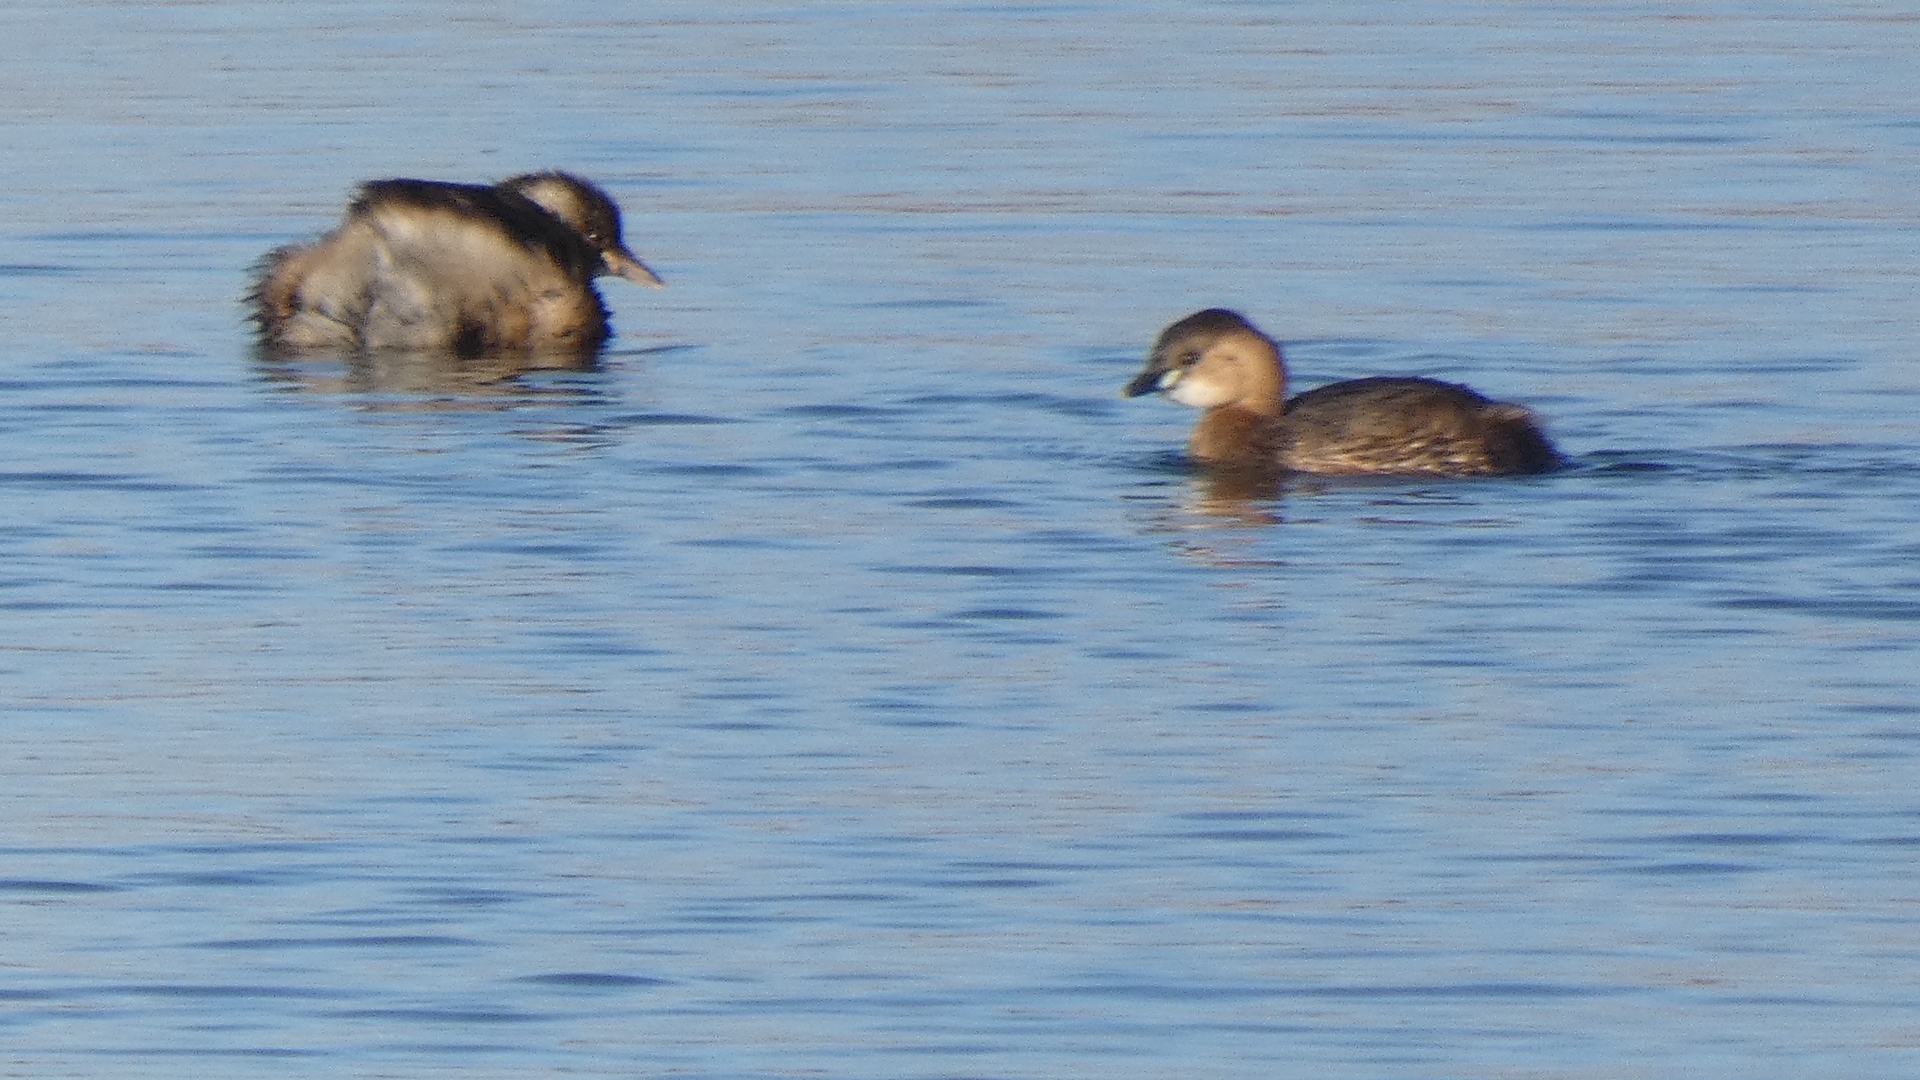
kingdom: Animalia
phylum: Chordata
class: Aves
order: Podicipediformes
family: Podicipedidae
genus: Tachybaptus
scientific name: Tachybaptus ruficollis
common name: Little grebe
